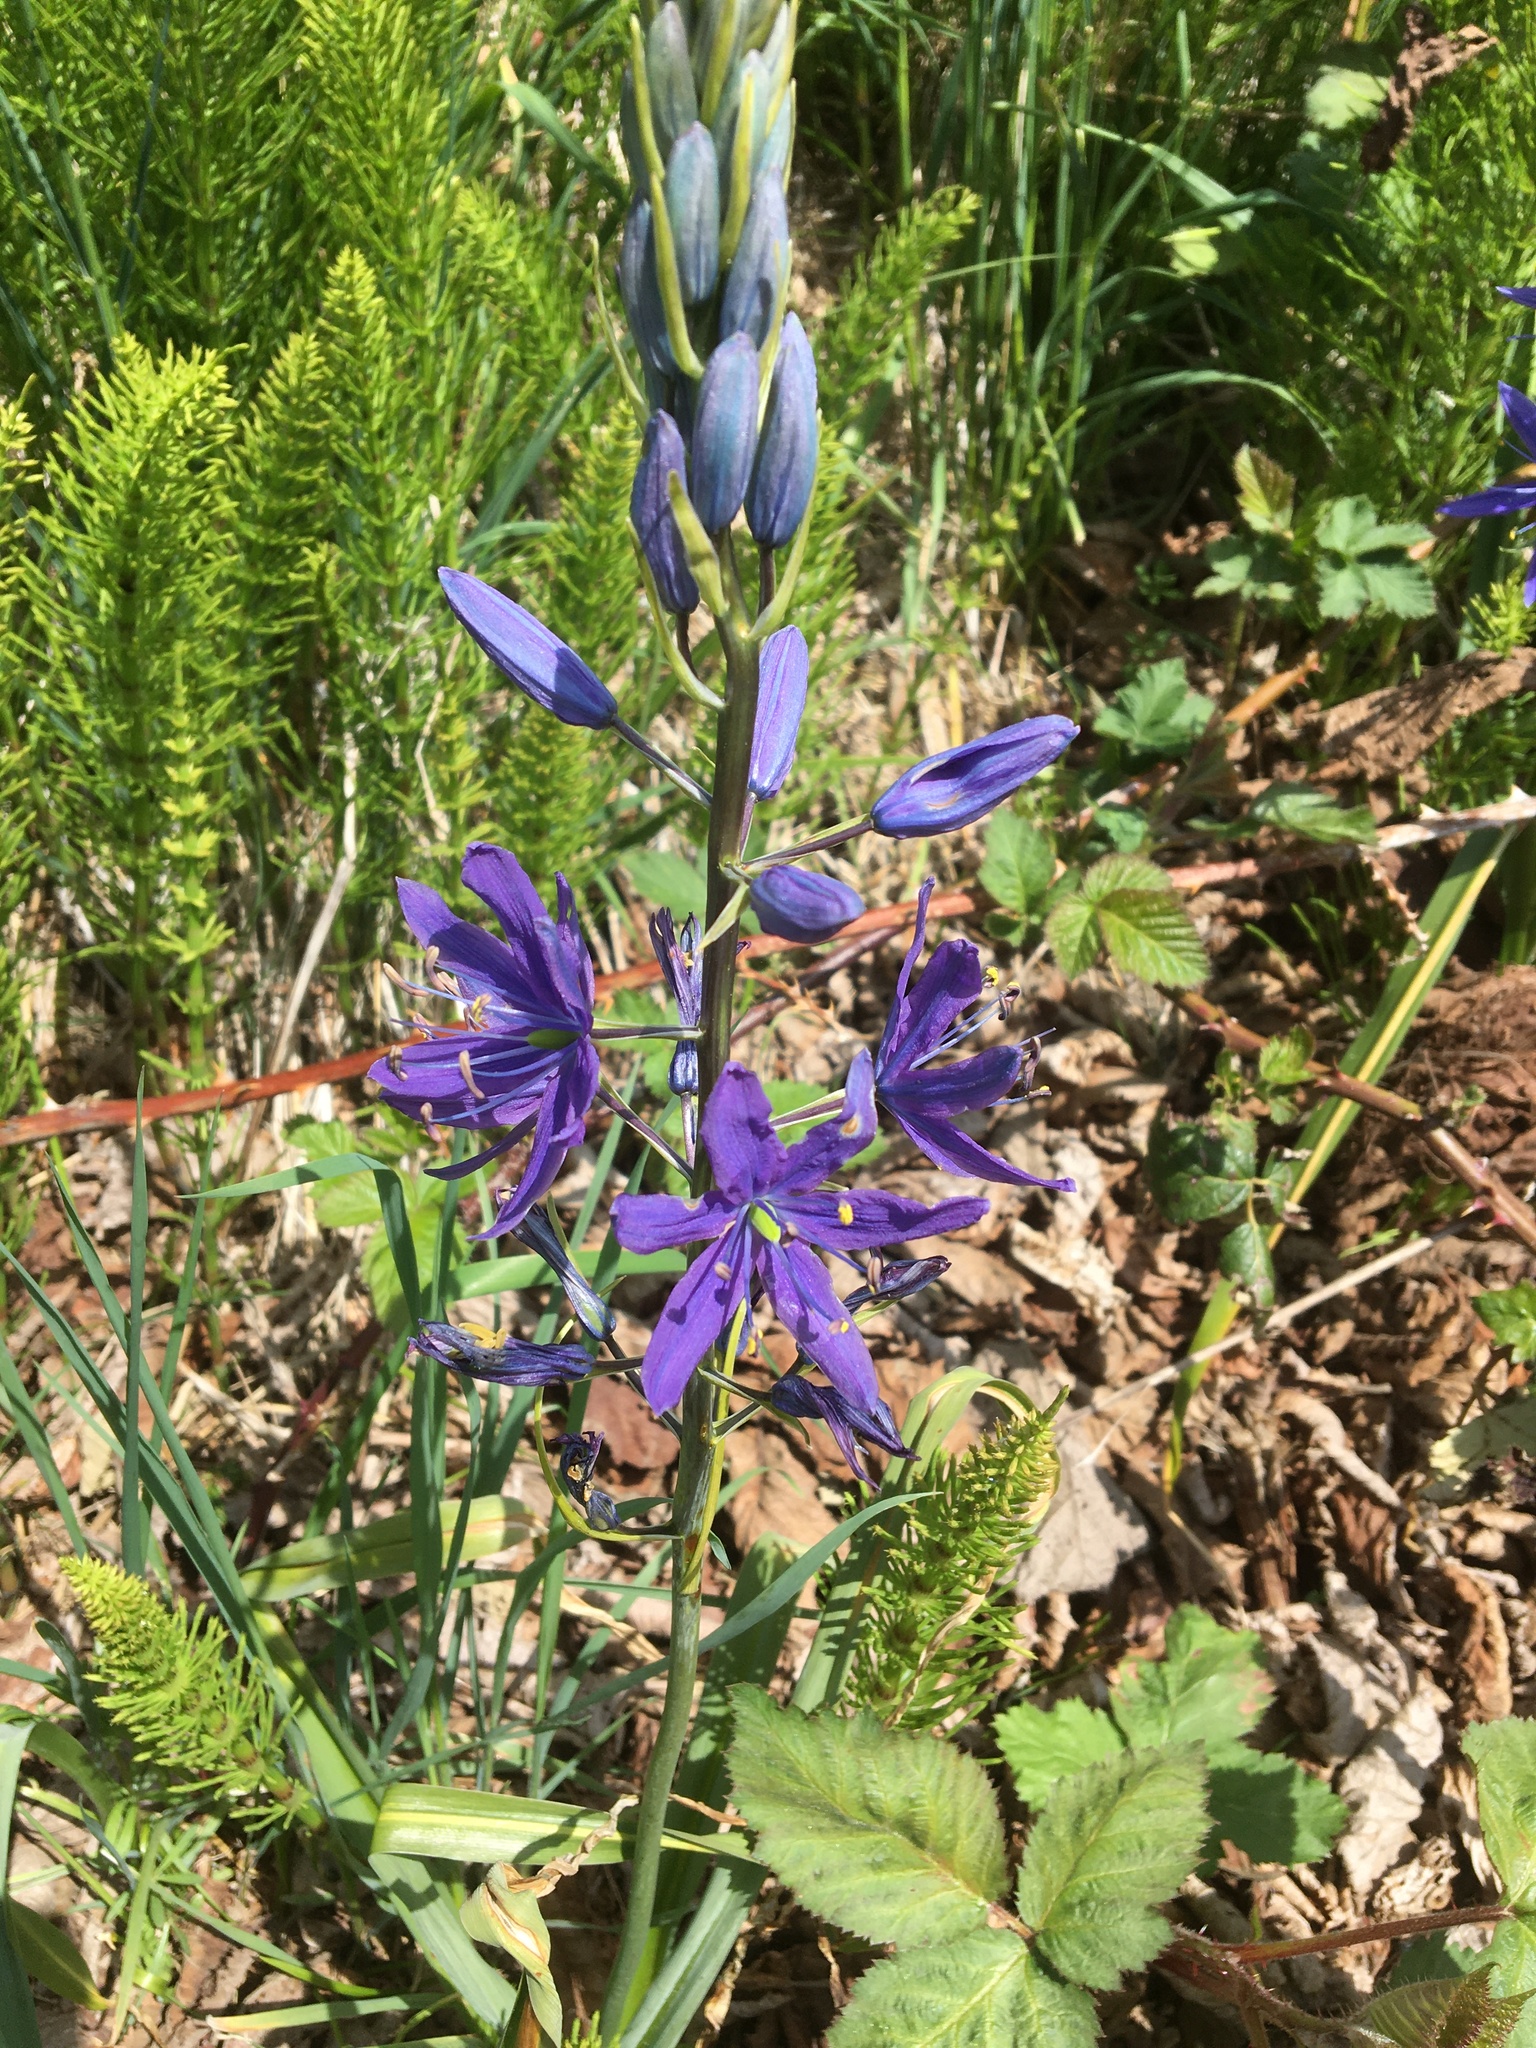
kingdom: Plantae
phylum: Tracheophyta
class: Liliopsida
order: Asparagales
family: Asparagaceae
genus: Camassia
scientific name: Camassia leichtlinii
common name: Leichtlin's camas
